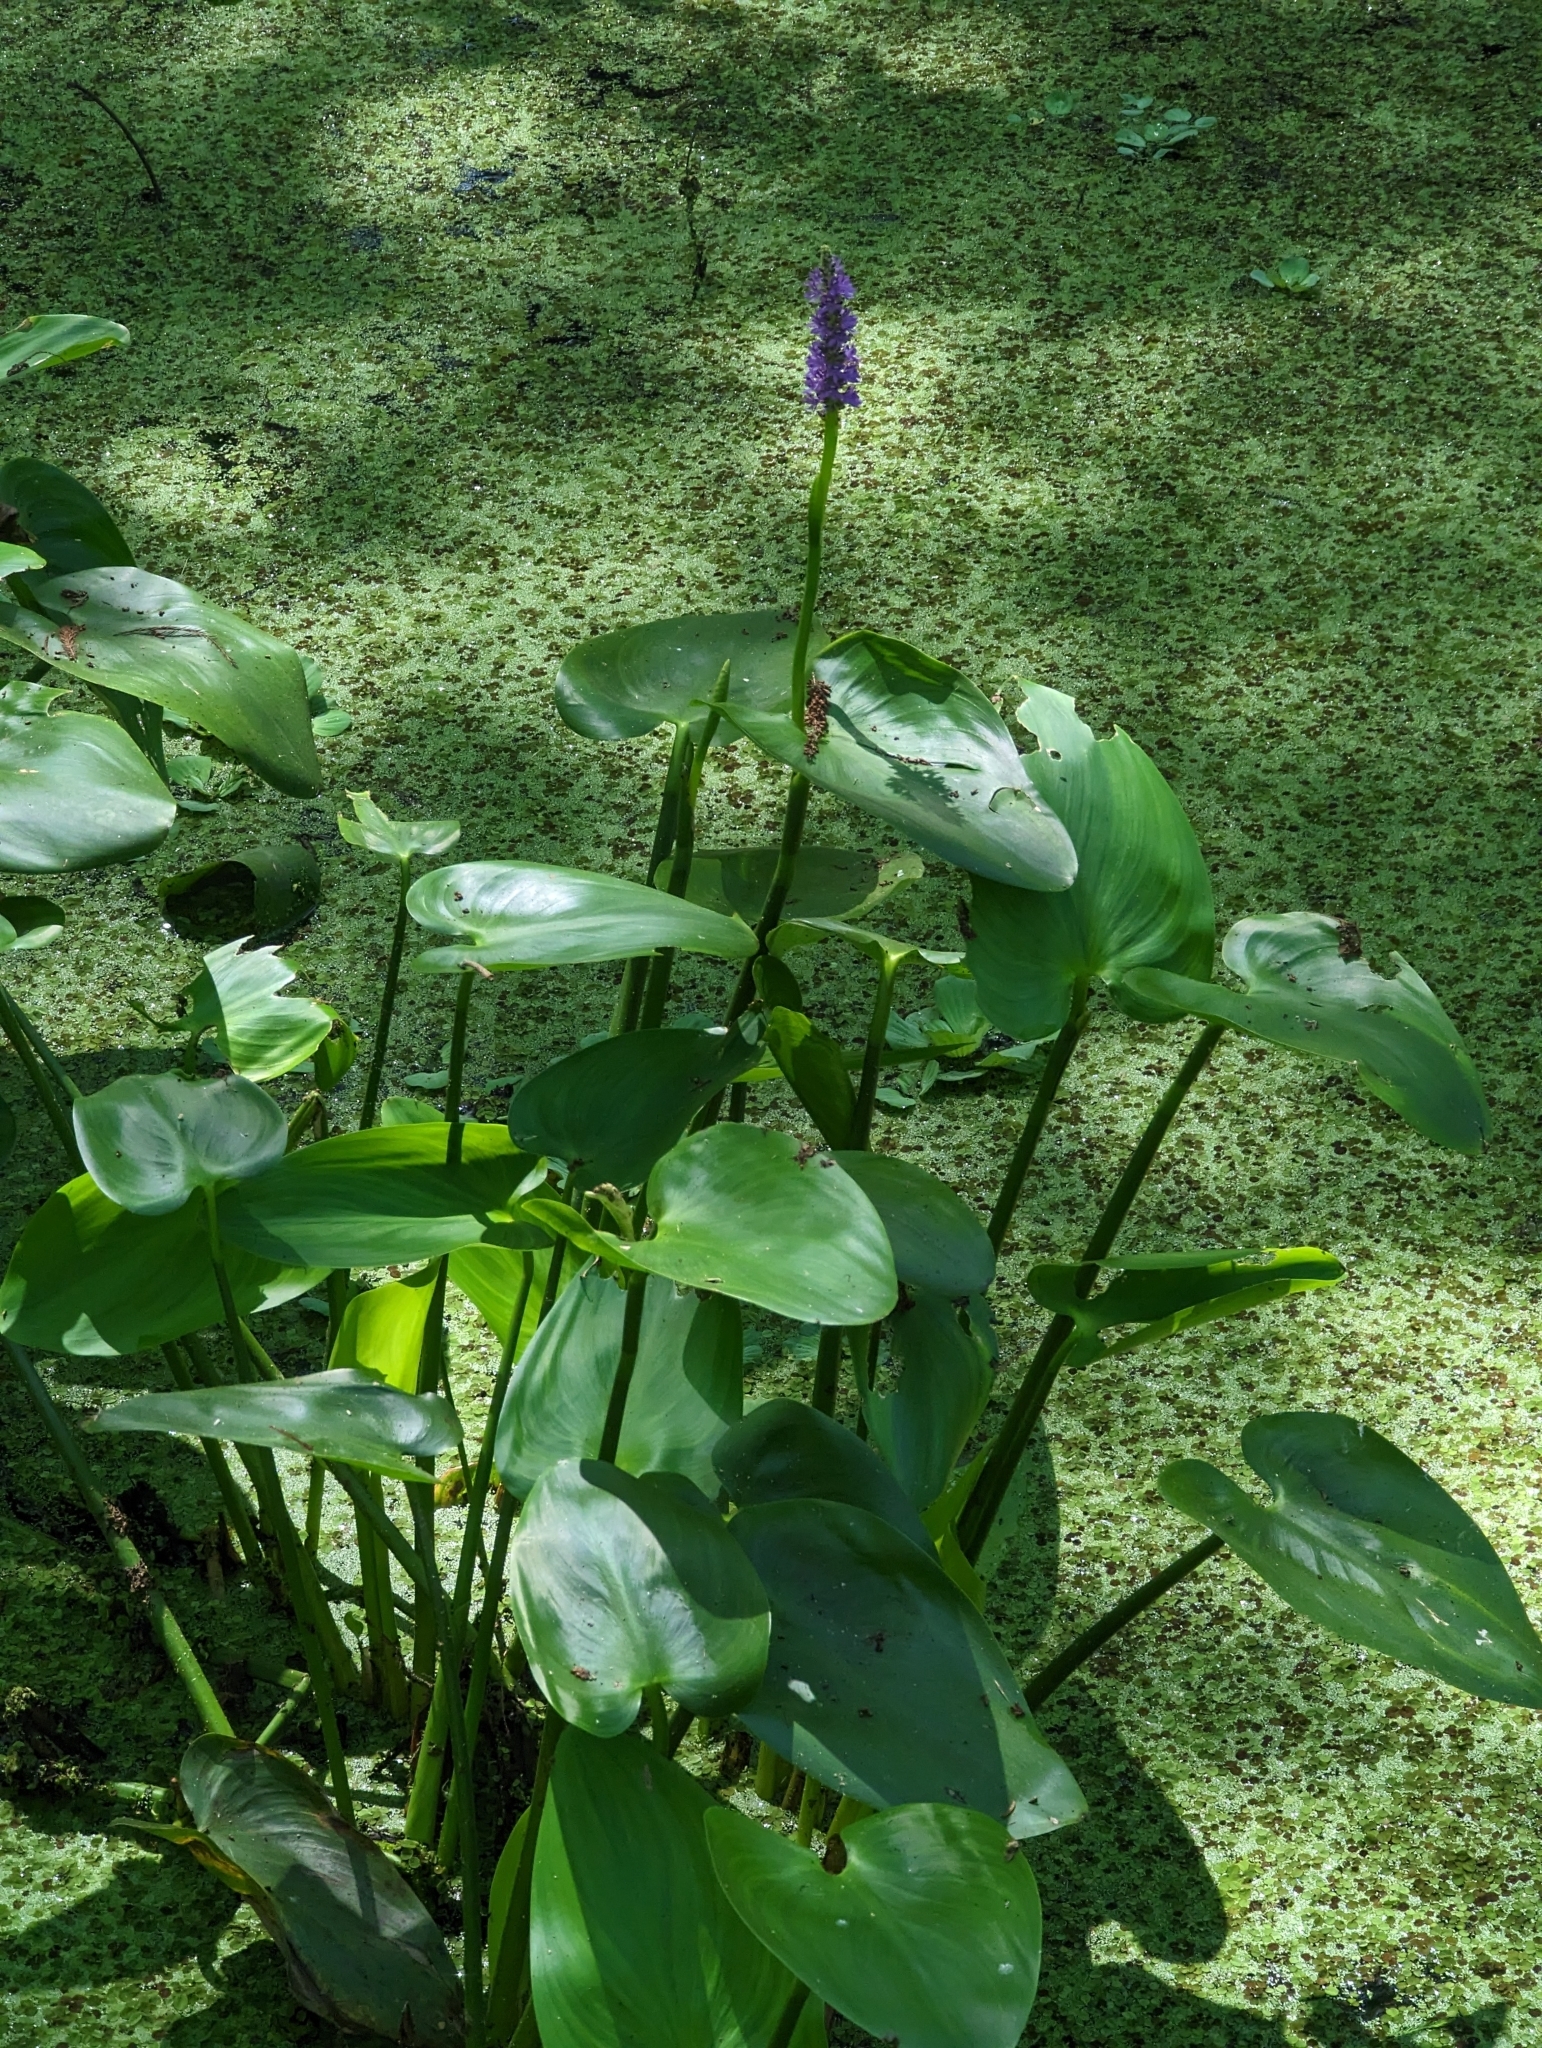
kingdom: Plantae
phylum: Tracheophyta
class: Liliopsida
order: Commelinales
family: Pontederiaceae
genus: Pontederia
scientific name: Pontederia cordata
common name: Pickerelweed
